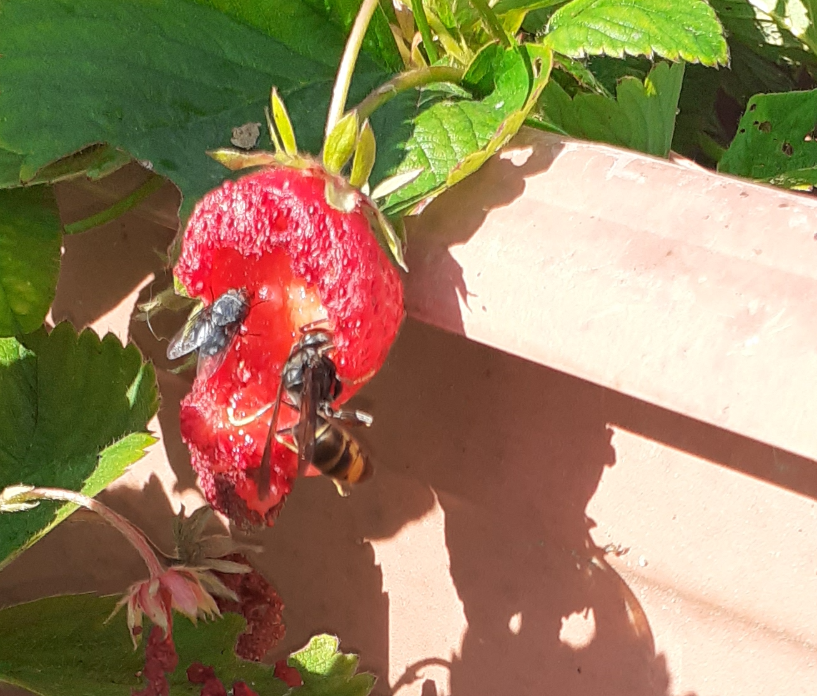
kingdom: Animalia
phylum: Arthropoda
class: Insecta
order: Hymenoptera
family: Vespidae
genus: Vespa
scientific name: Vespa velutina
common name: Asian hornet
